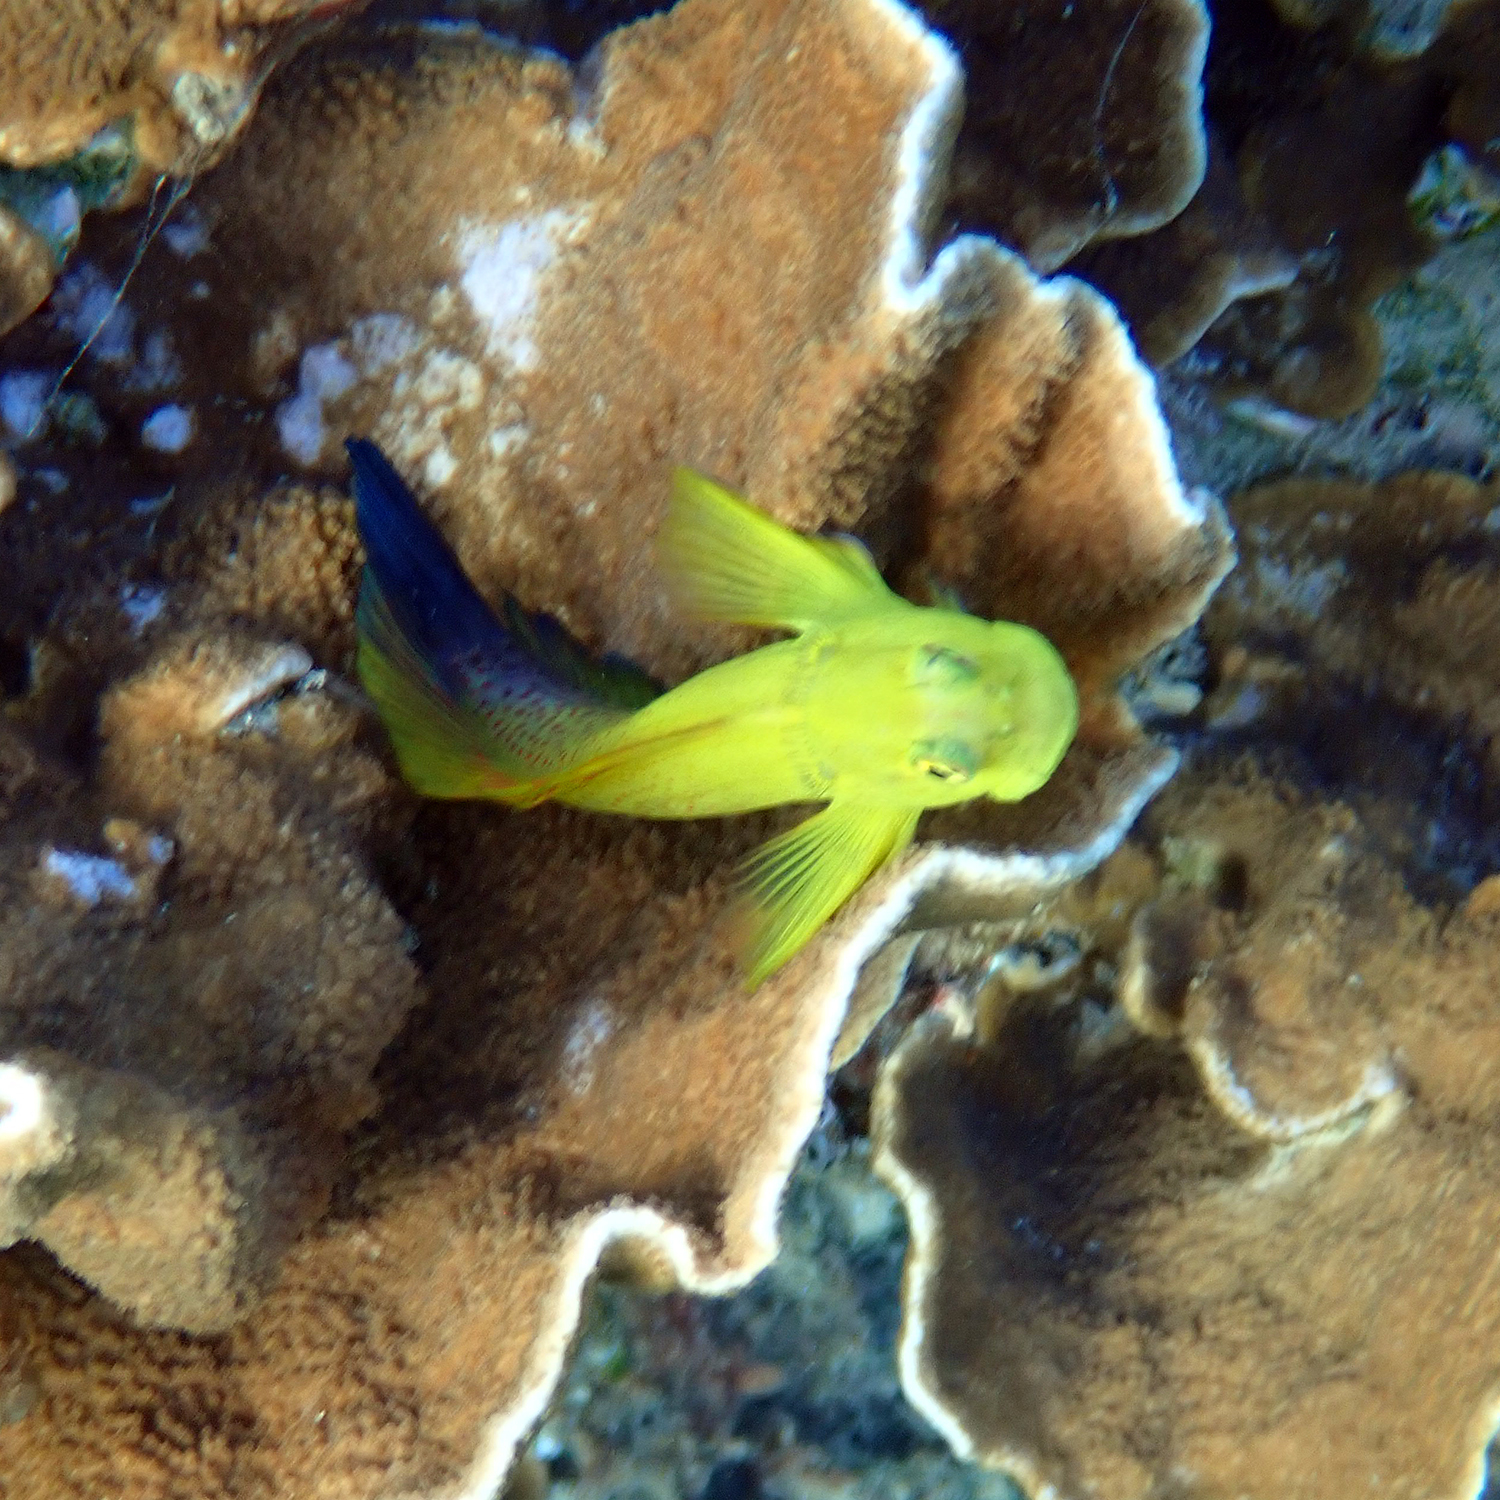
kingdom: Animalia
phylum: Chordata
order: Perciformes
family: Blenniidae
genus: Cirripectes
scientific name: Cirripectes chelomatus
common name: Lady musgrave blenny
